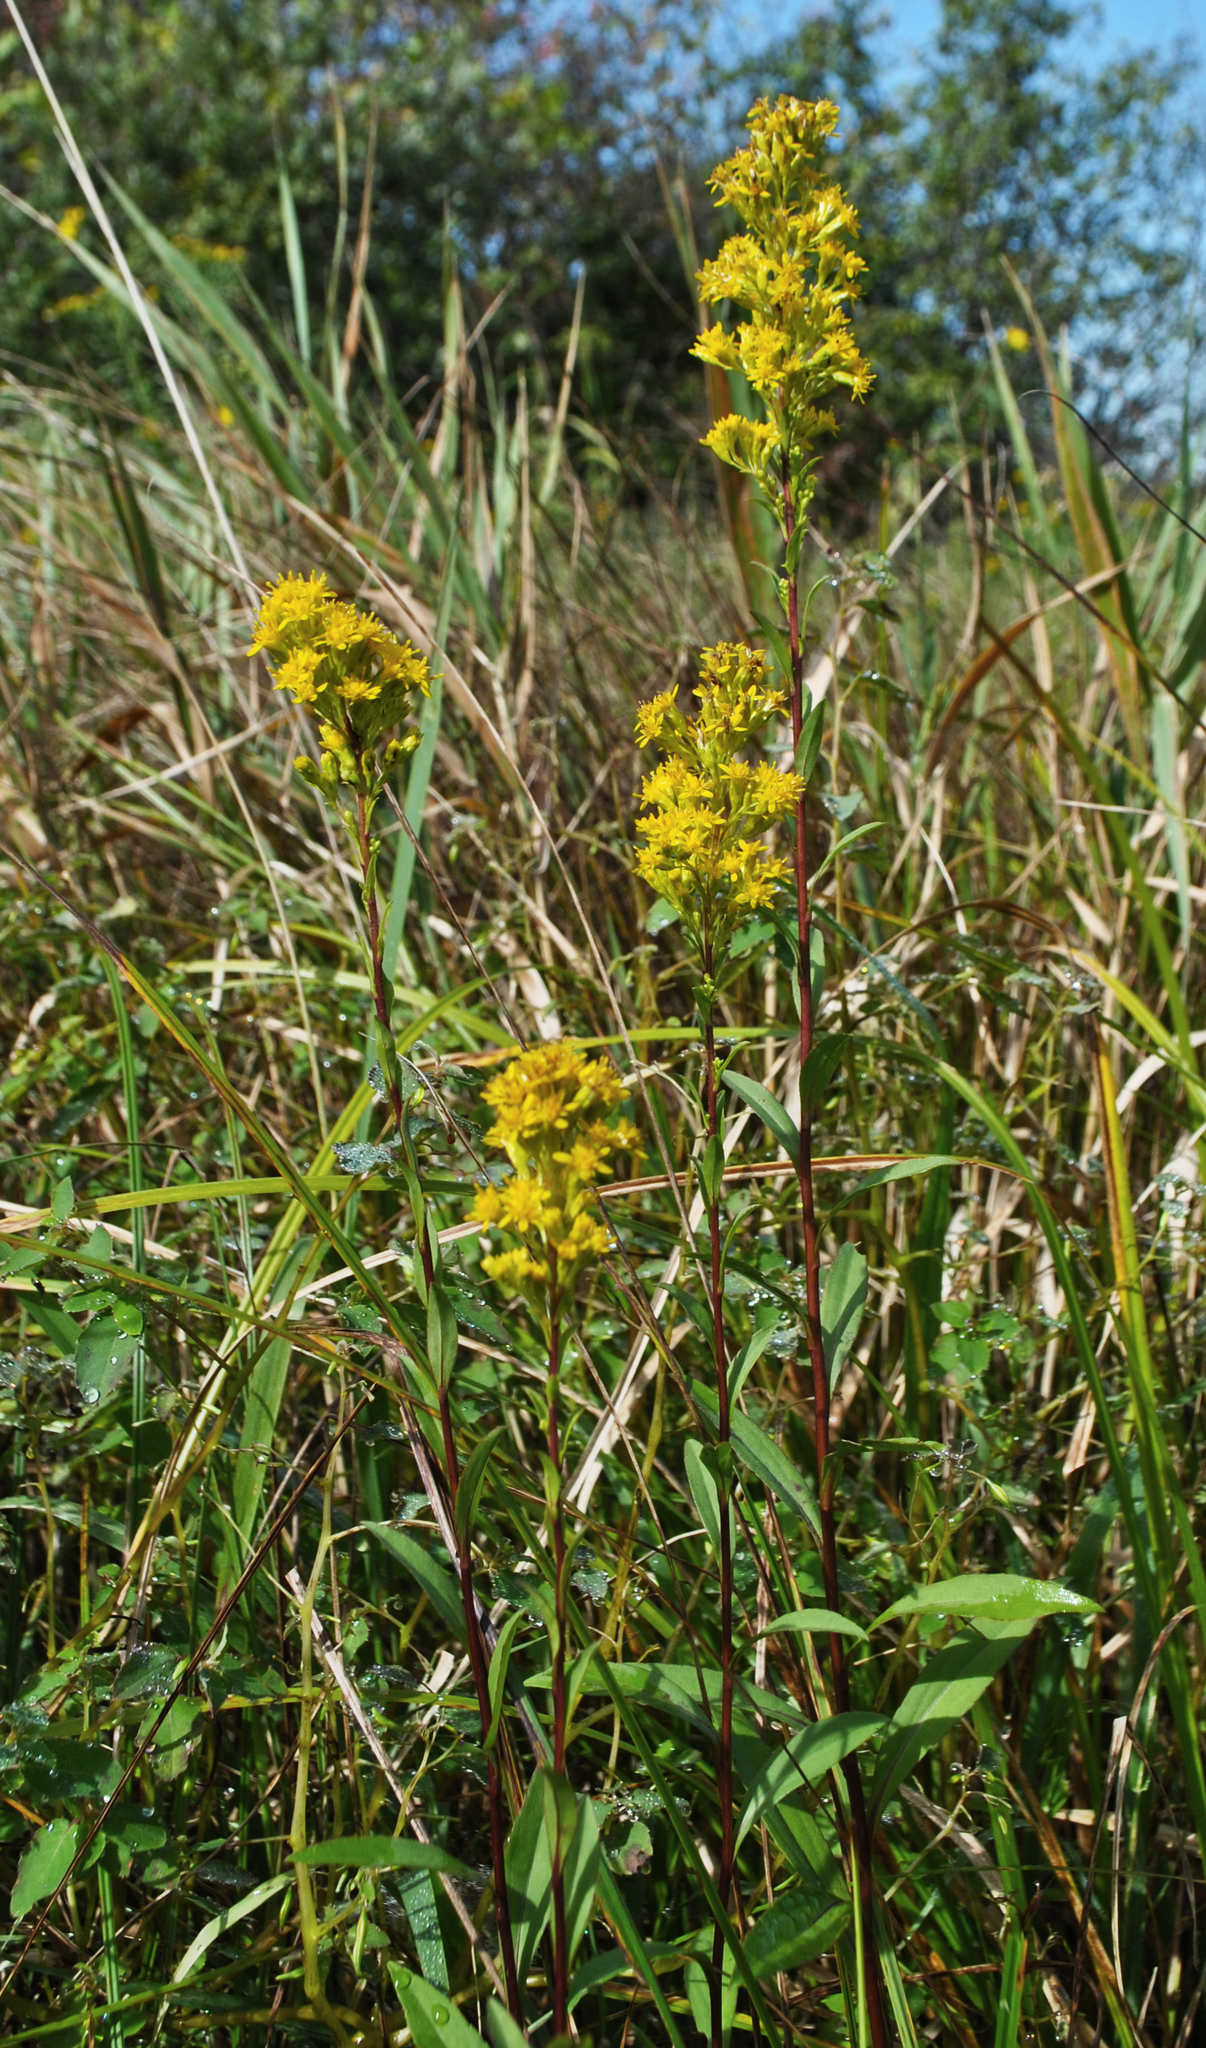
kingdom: Plantae
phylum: Tracheophyta
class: Magnoliopsida
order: Asterales
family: Asteraceae
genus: Solidago
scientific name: Solidago uliginosa
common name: Bog goldenrod
